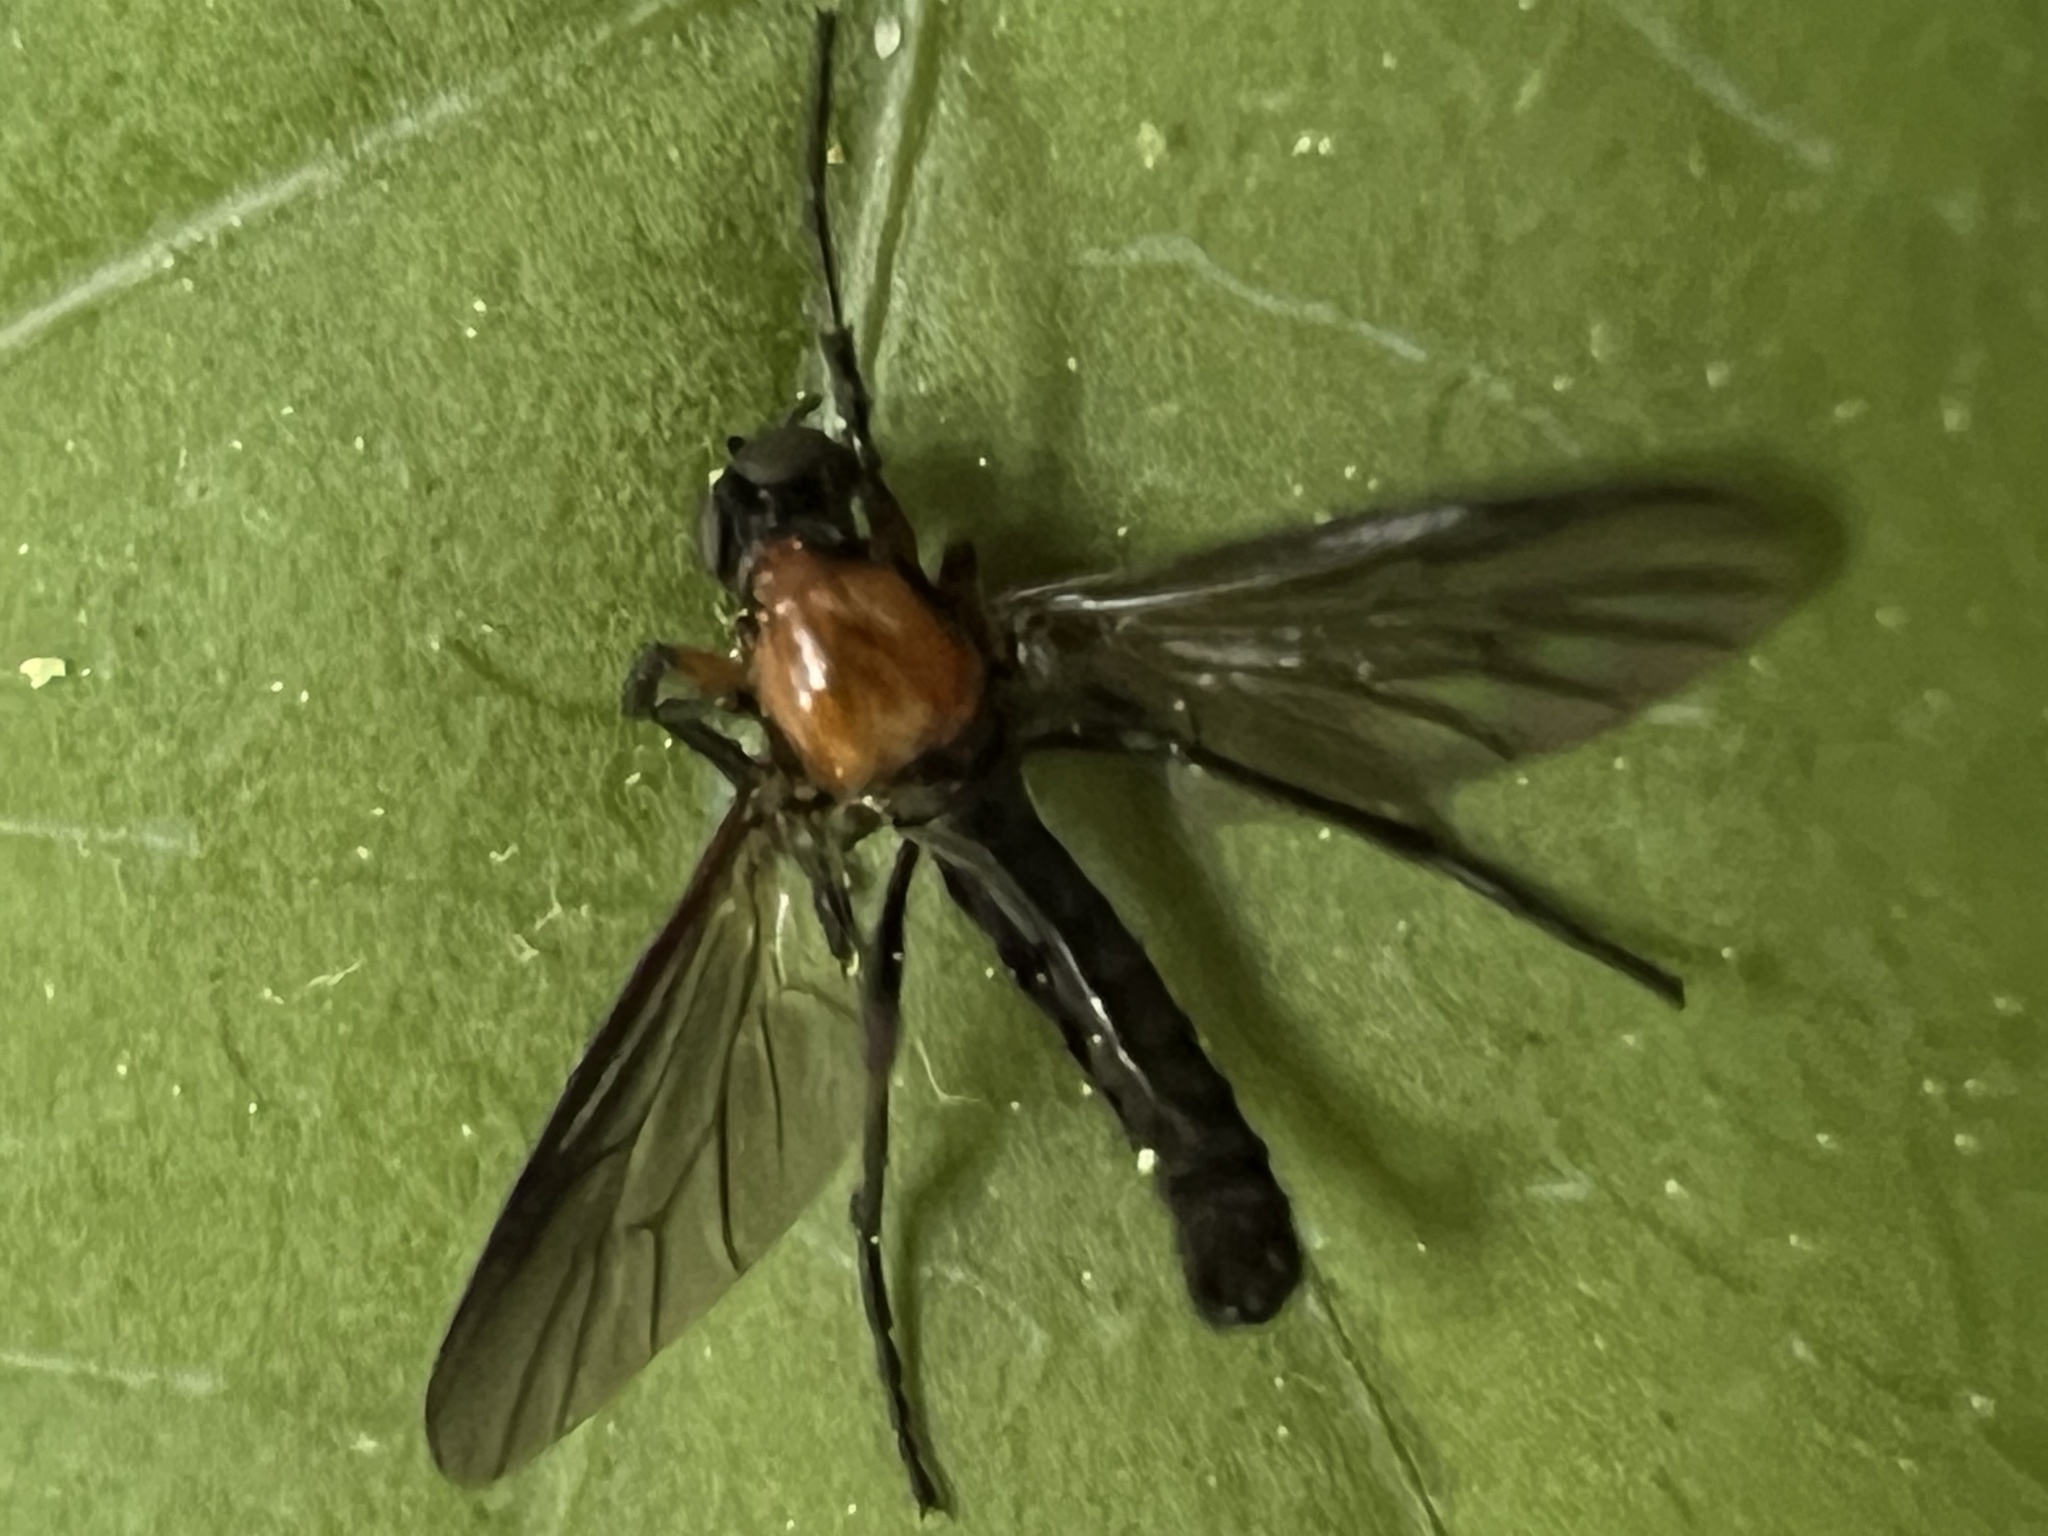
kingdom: Animalia
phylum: Arthropoda
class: Insecta
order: Diptera
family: Bibionidae
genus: Dilophus
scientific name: Dilophus spinipes
